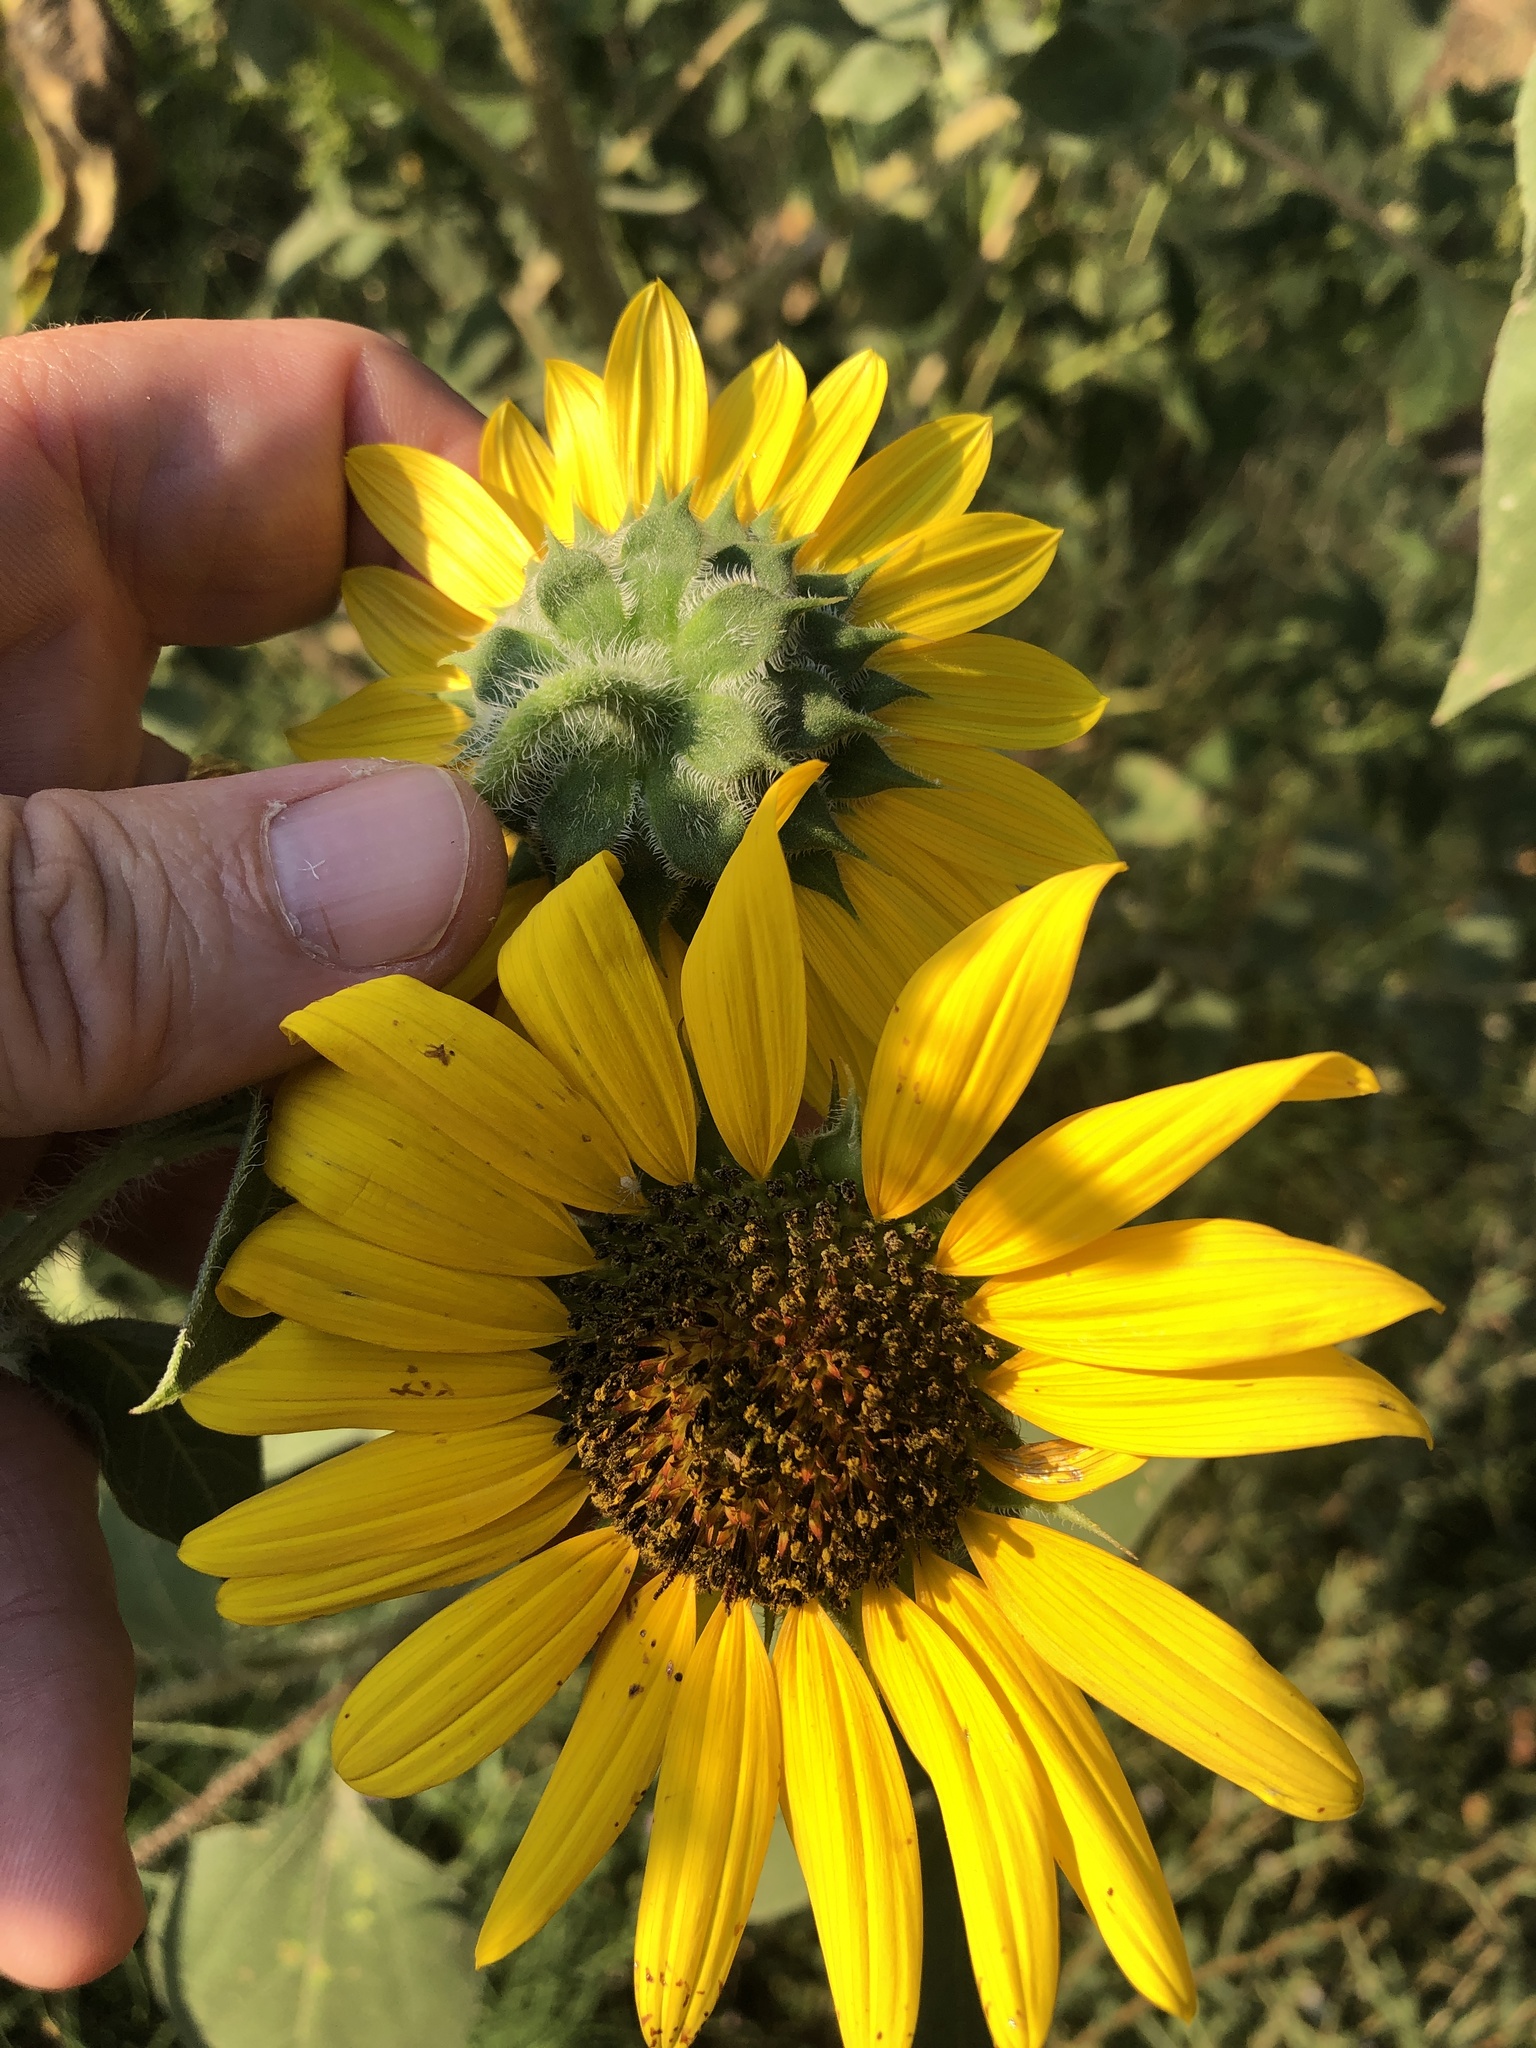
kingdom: Plantae
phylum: Tracheophyta
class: Magnoliopsida
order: Asterales
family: Asteraceae
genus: Helianthus
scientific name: Helianthus annuus
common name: Sunflower
